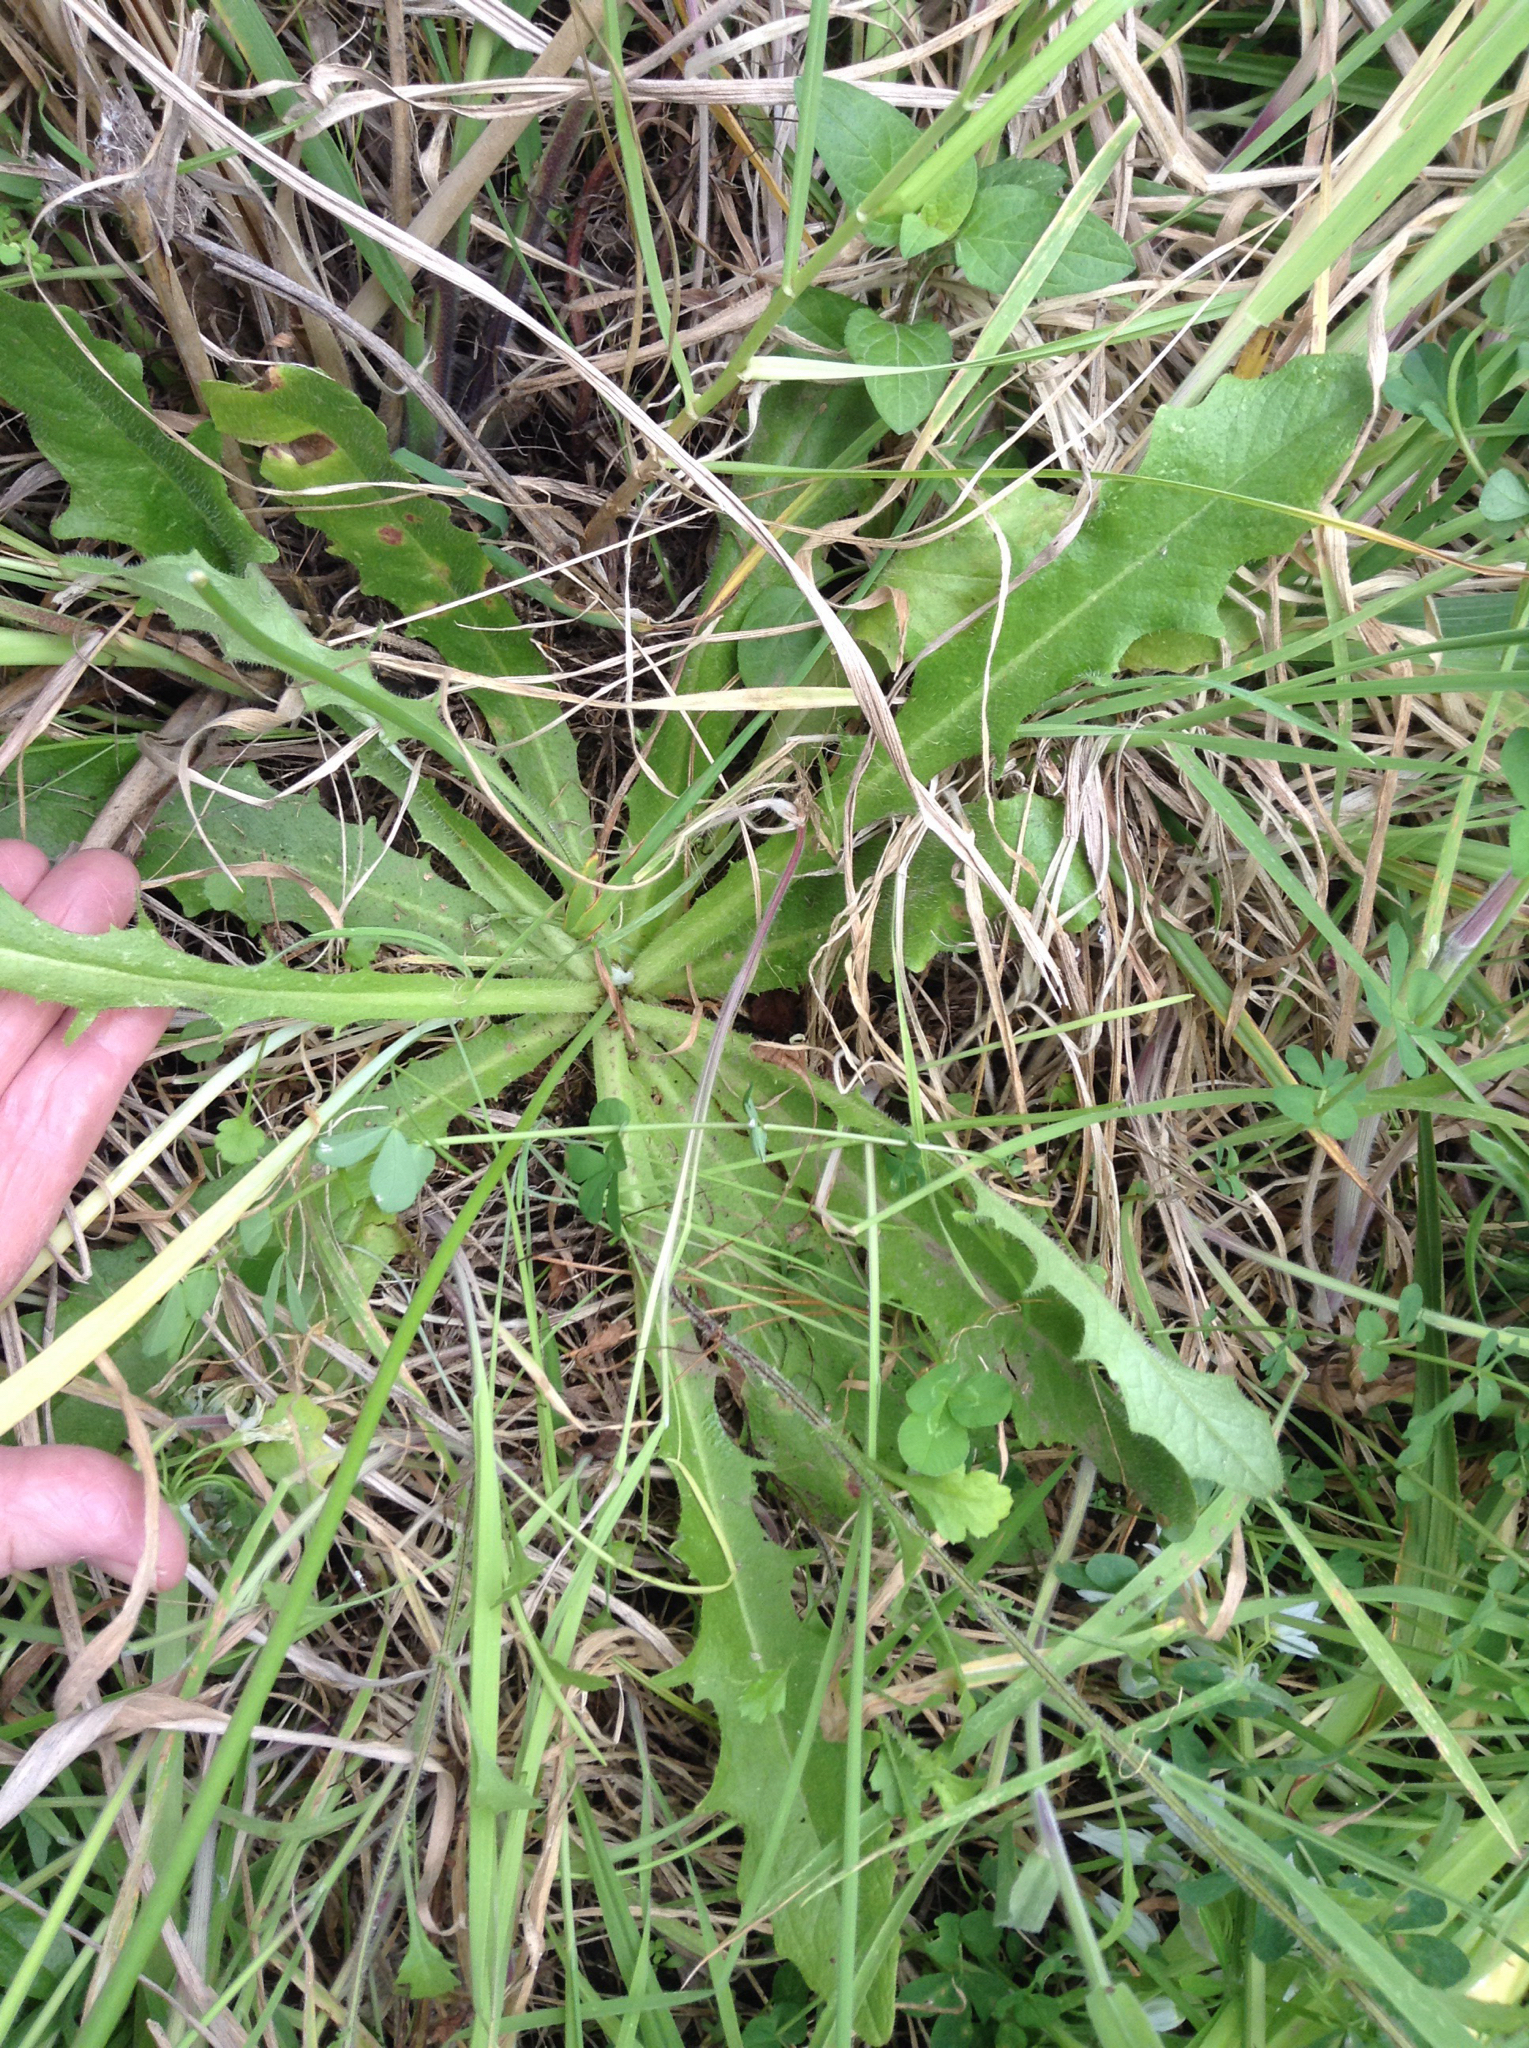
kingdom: Plantae
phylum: Tracheophyta
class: Magnoliopsida
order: Asterales
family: Asteraceae
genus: Hypochaeris
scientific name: Hypochaeris radicata
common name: Flatweed
